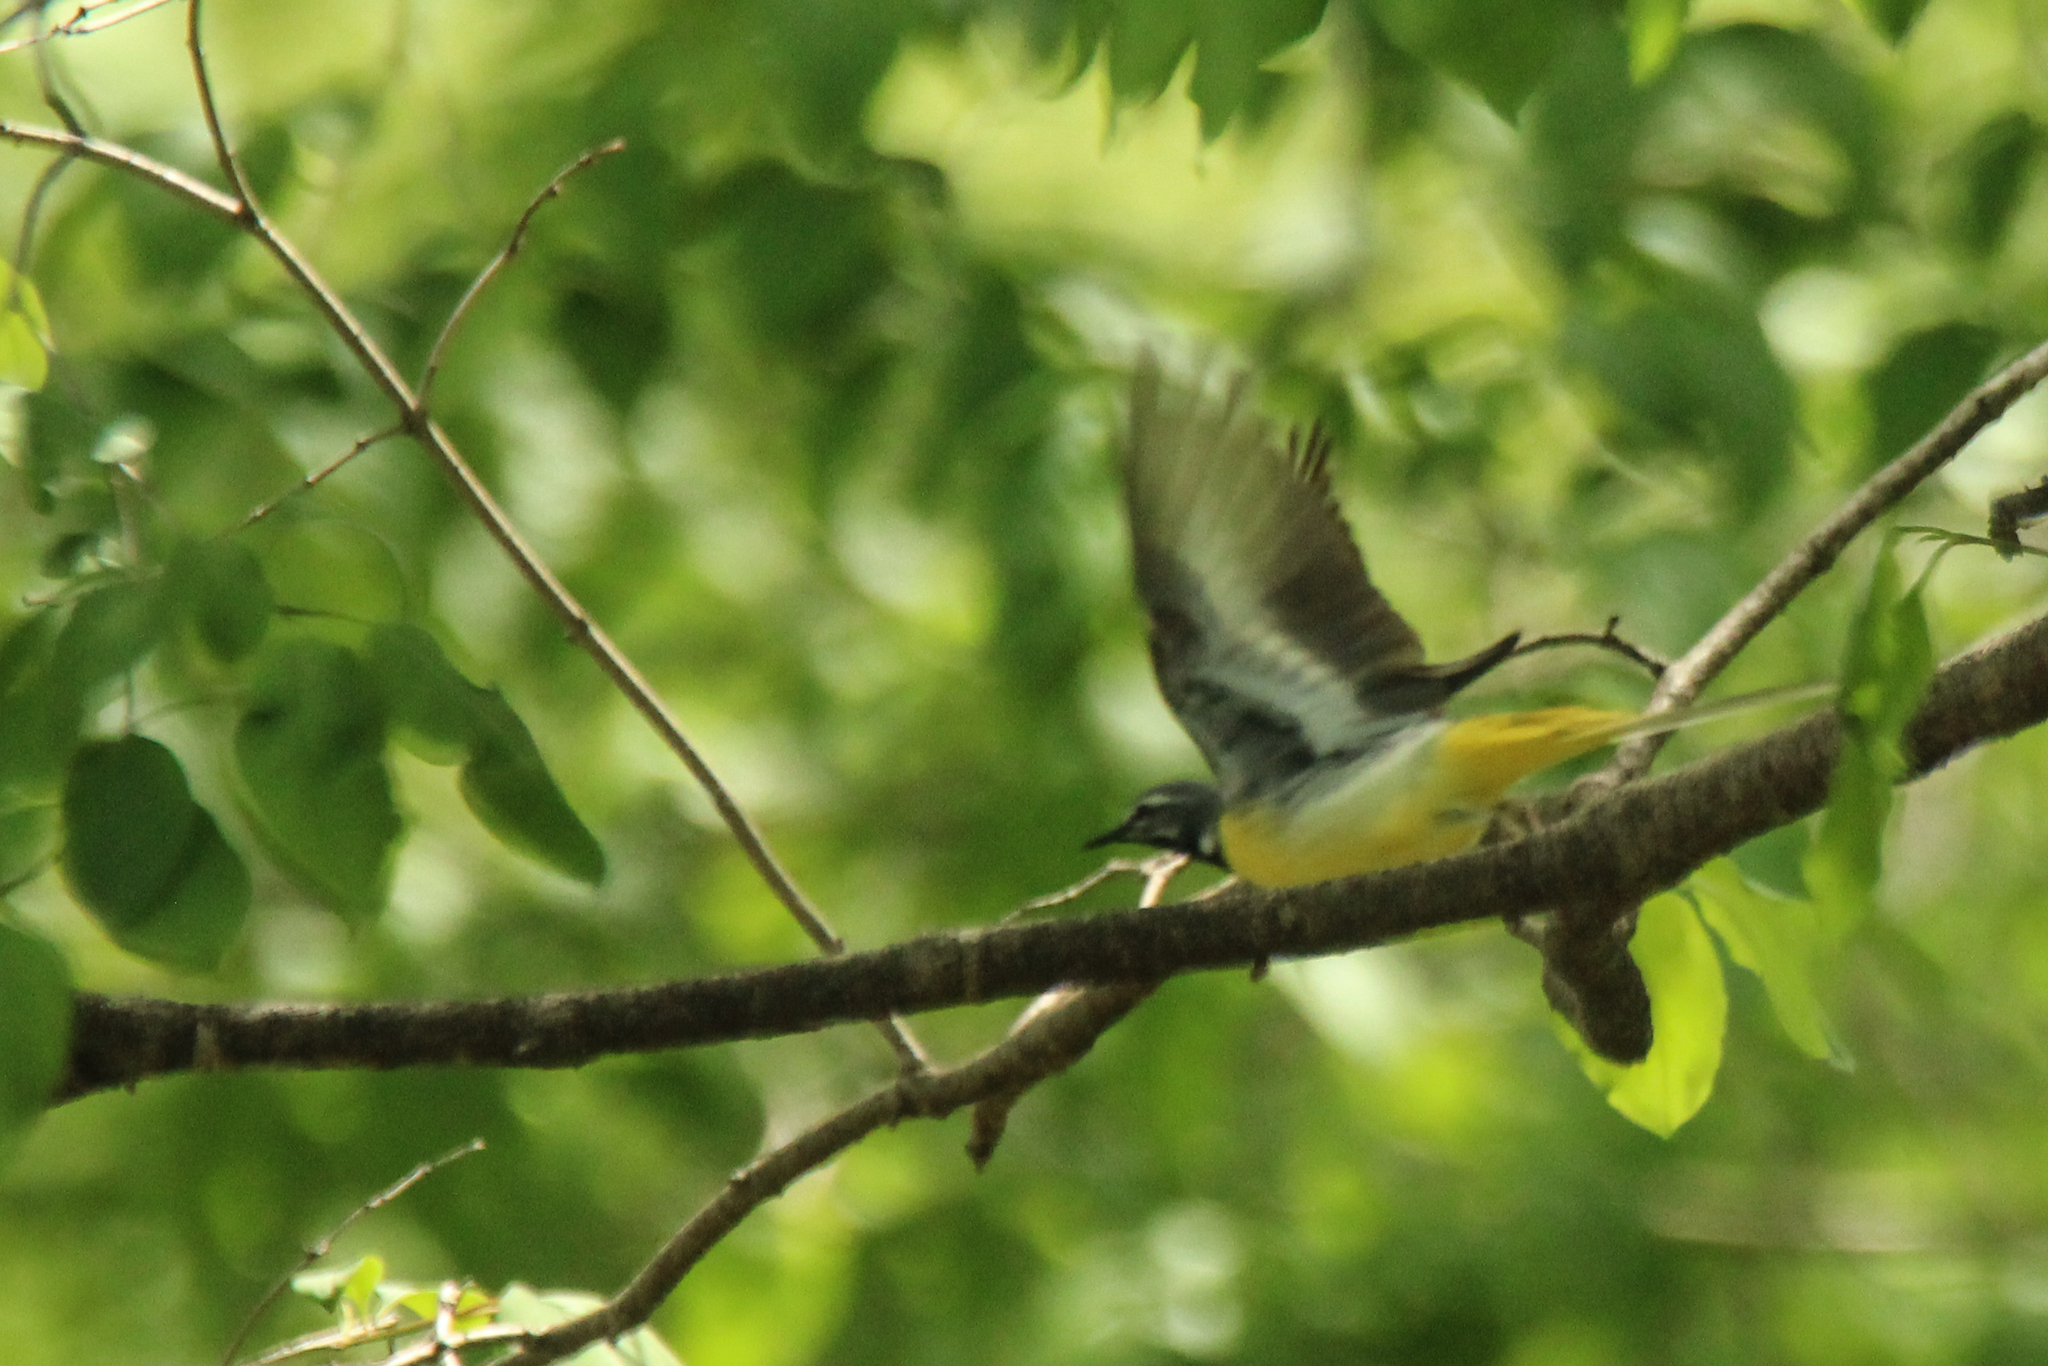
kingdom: Animalia
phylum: Chordata
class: Aves
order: Passeriformes
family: Motacillidae
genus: Motacilla
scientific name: Motacilla cinerea
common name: Grey wagtail
